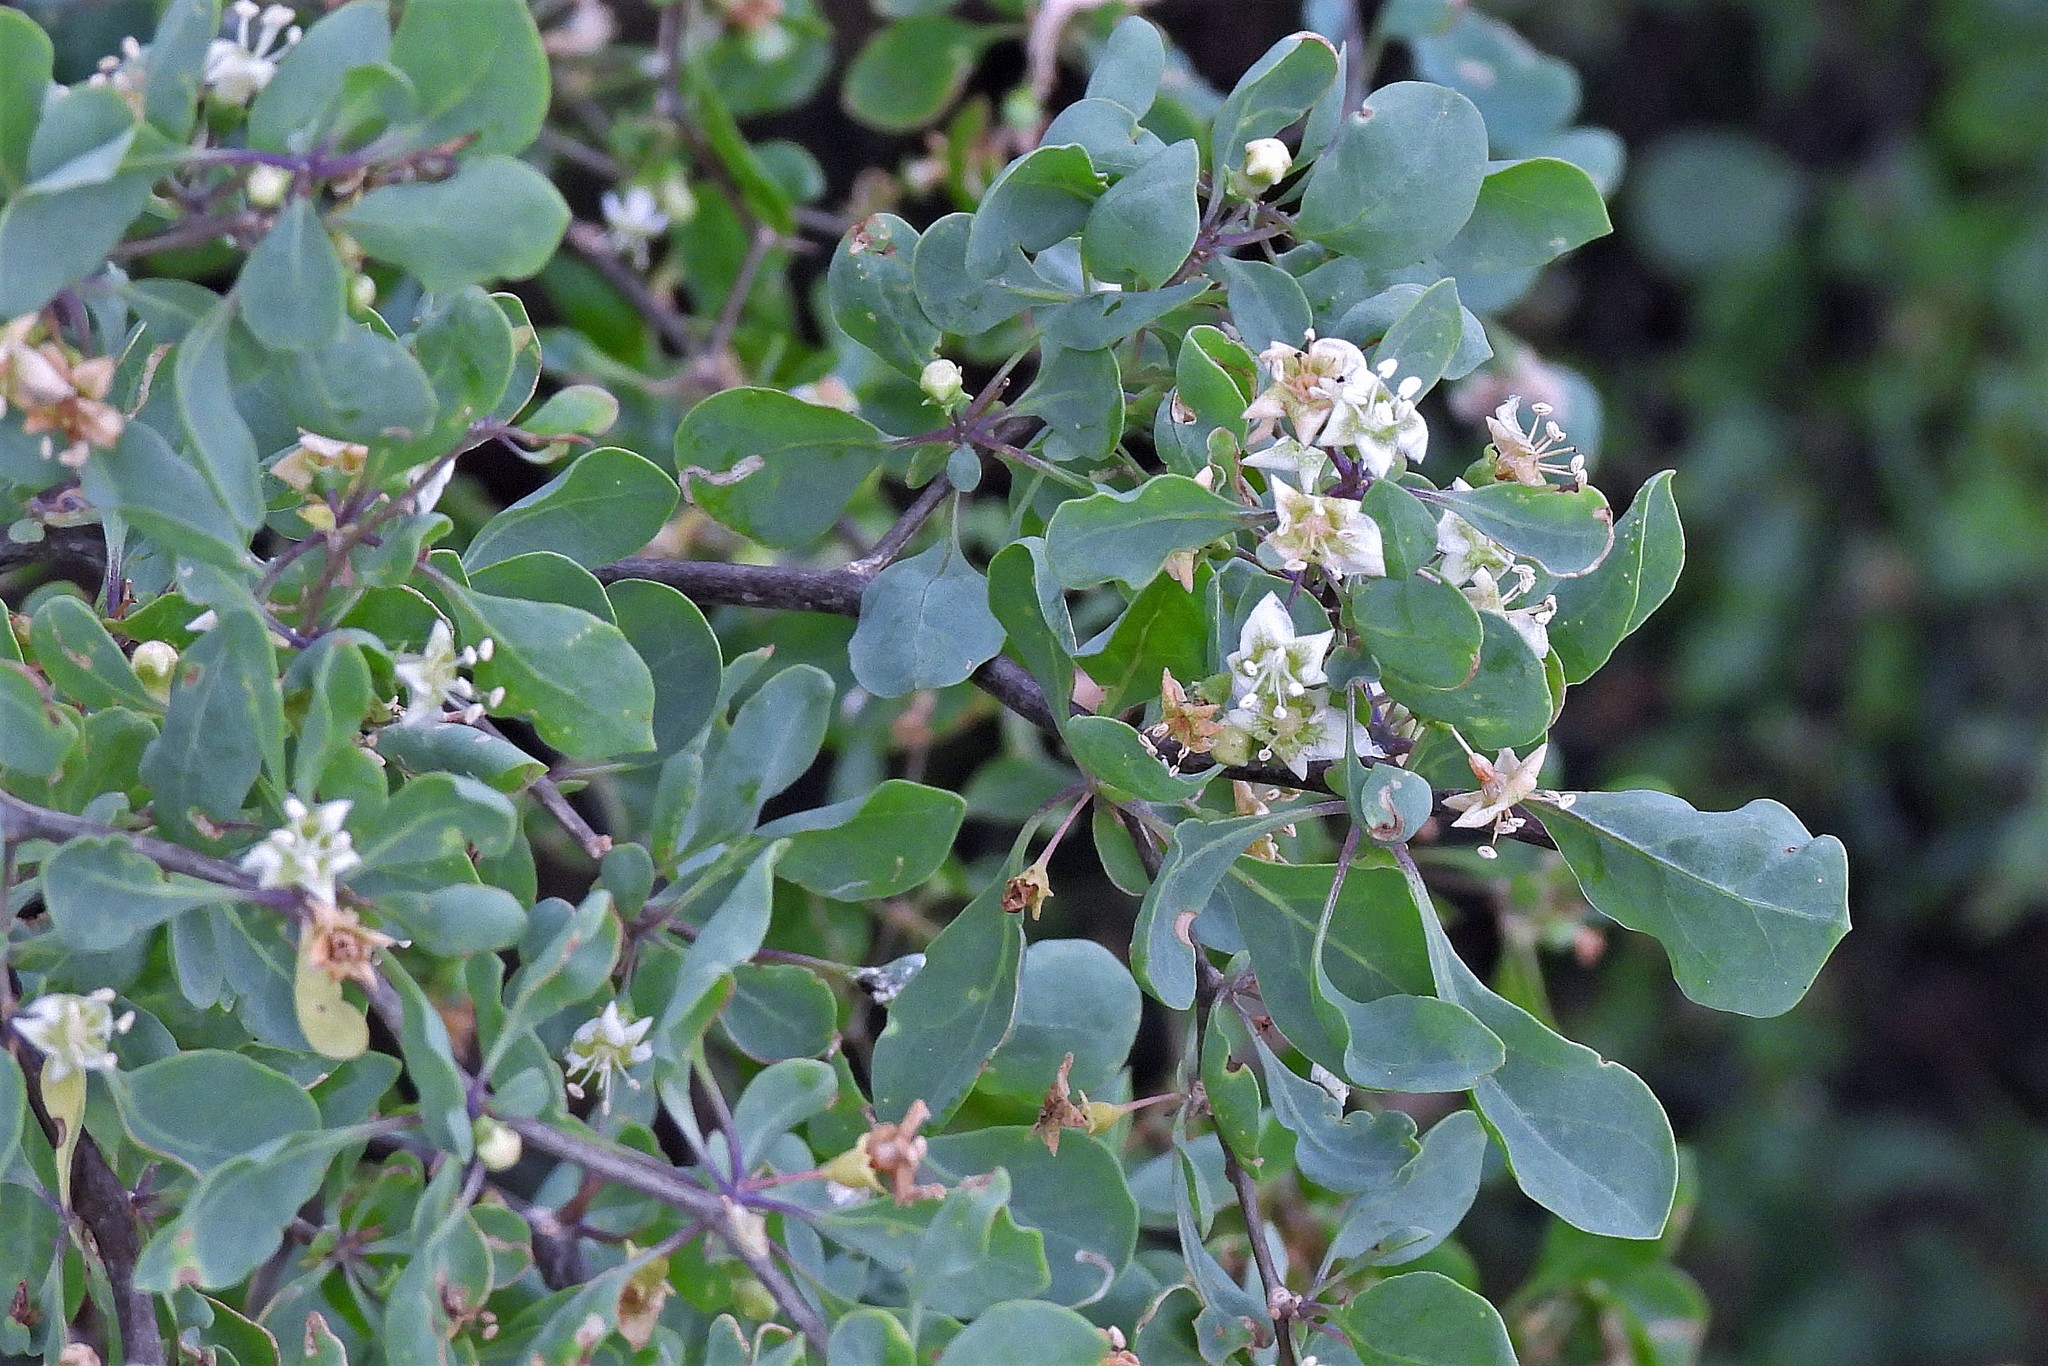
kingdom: Plantae
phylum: Tracheophyta
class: Magnoliopsida
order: Solanales
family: Solanaceae
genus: Lycium
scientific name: Lycium boerhaaviifolium
